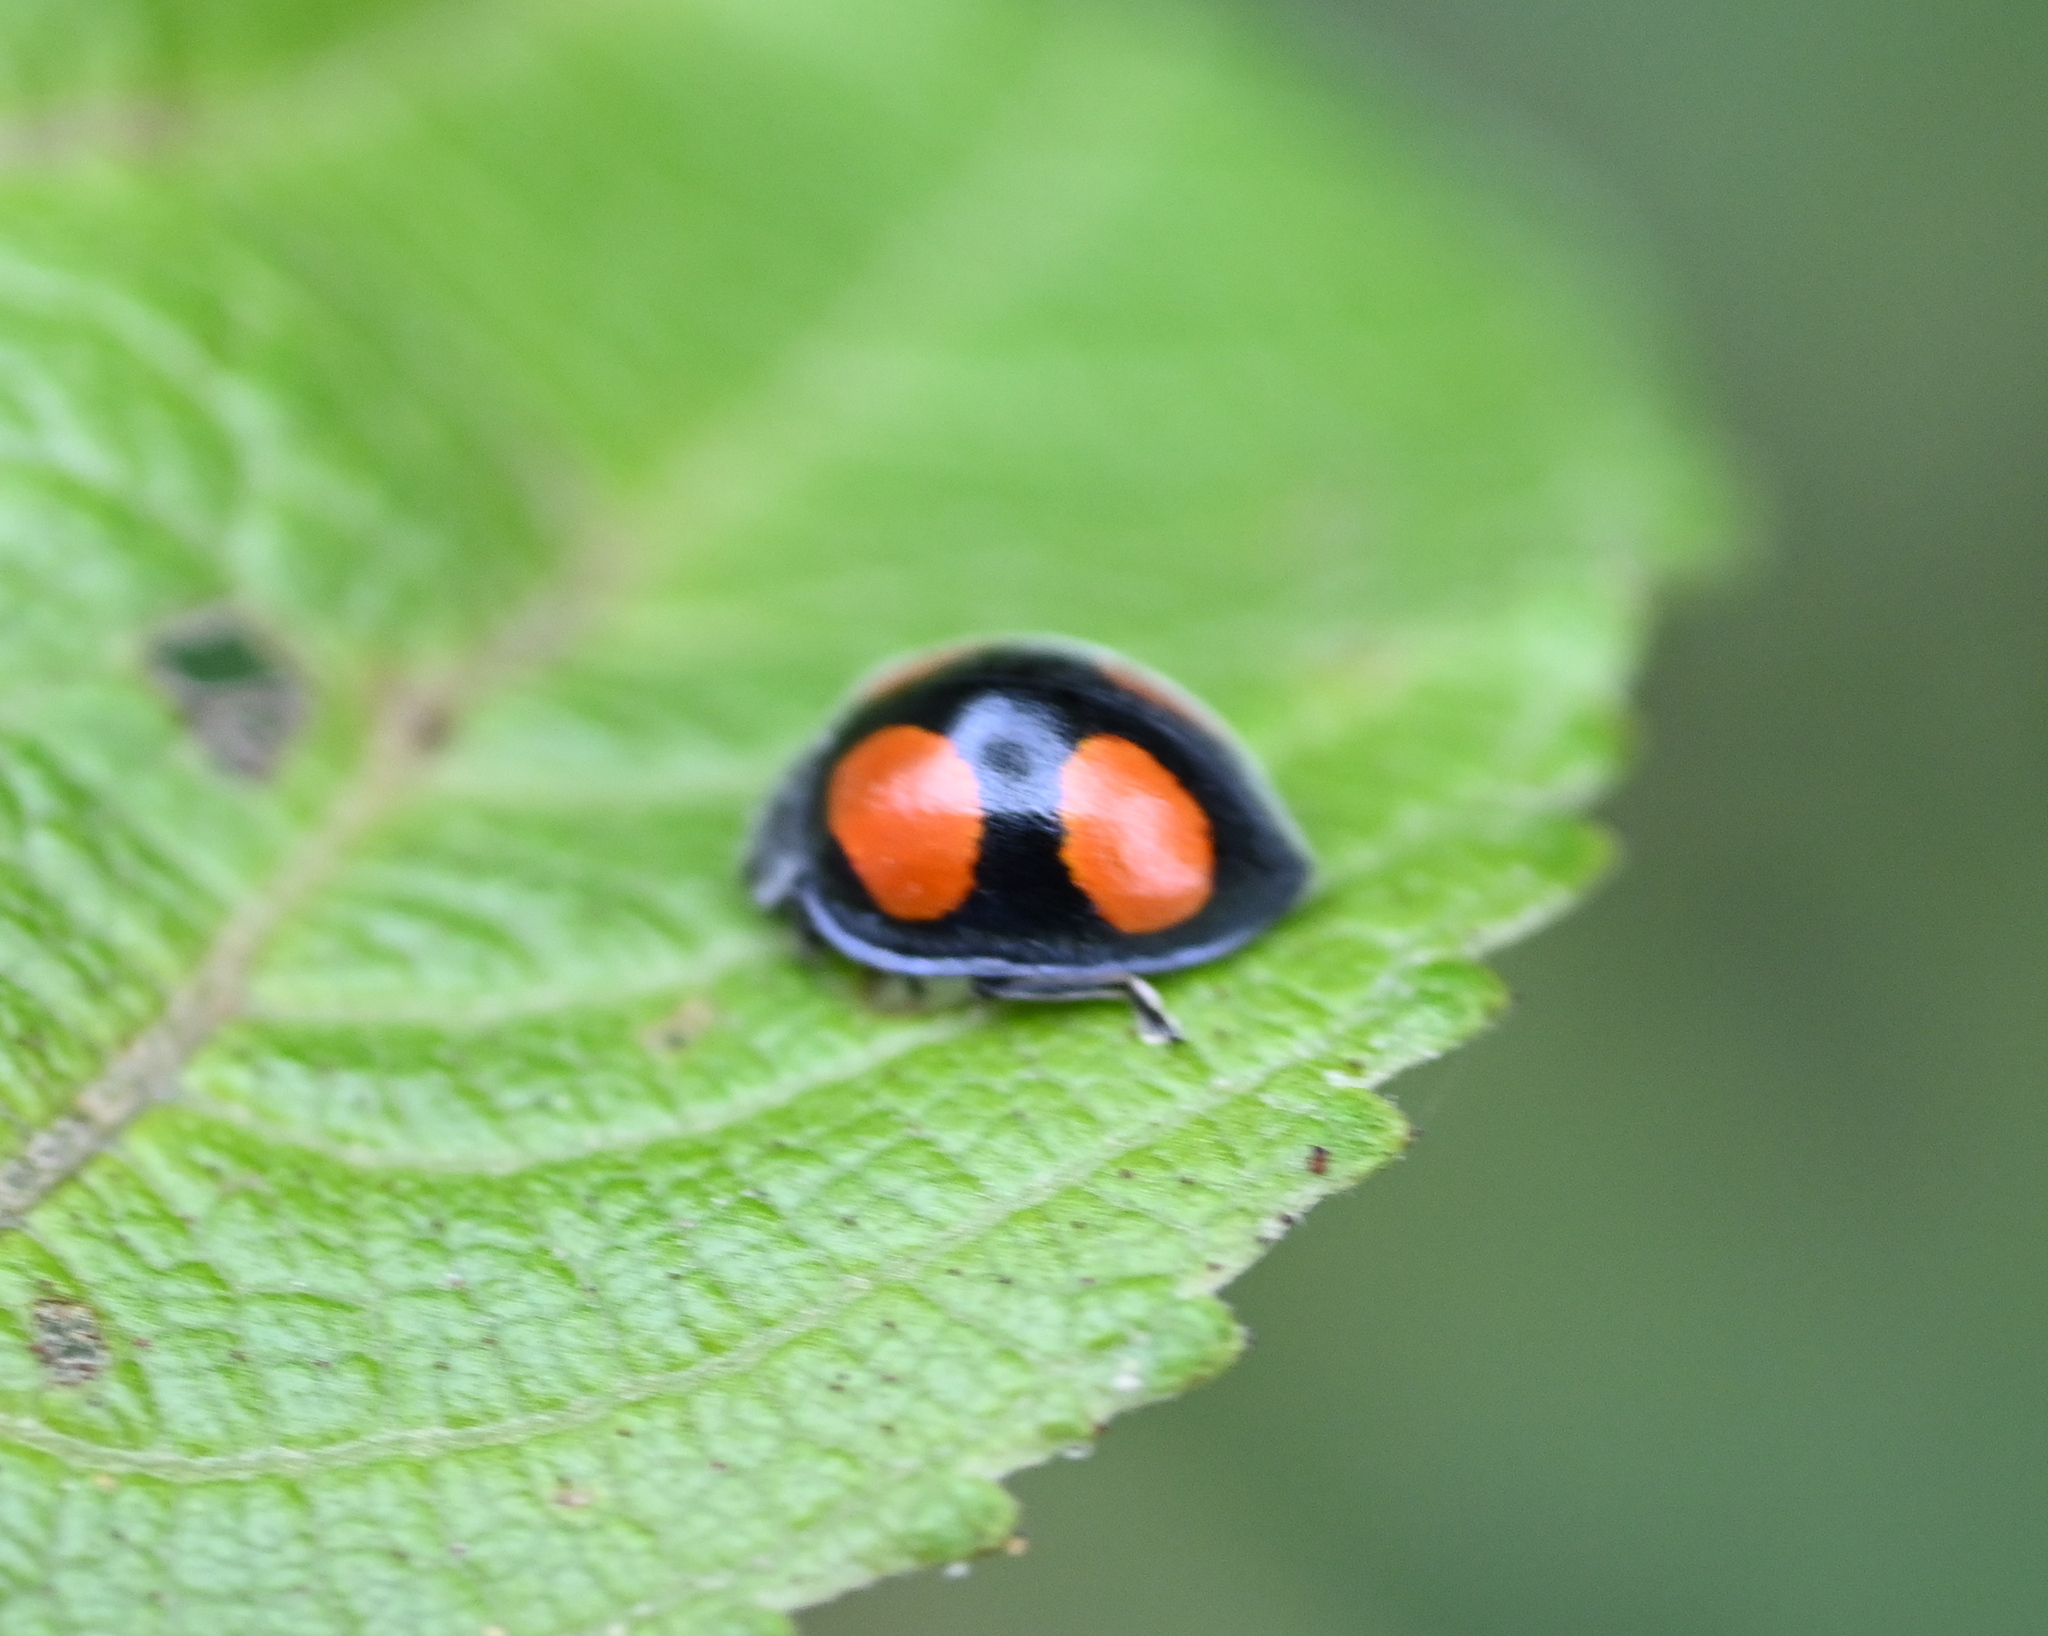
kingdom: Animalia
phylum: Arthropoda
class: Insecta
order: Coleoptera
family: Coccinellidae
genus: Toxotoma
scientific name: Toxotoma flavofasciata
